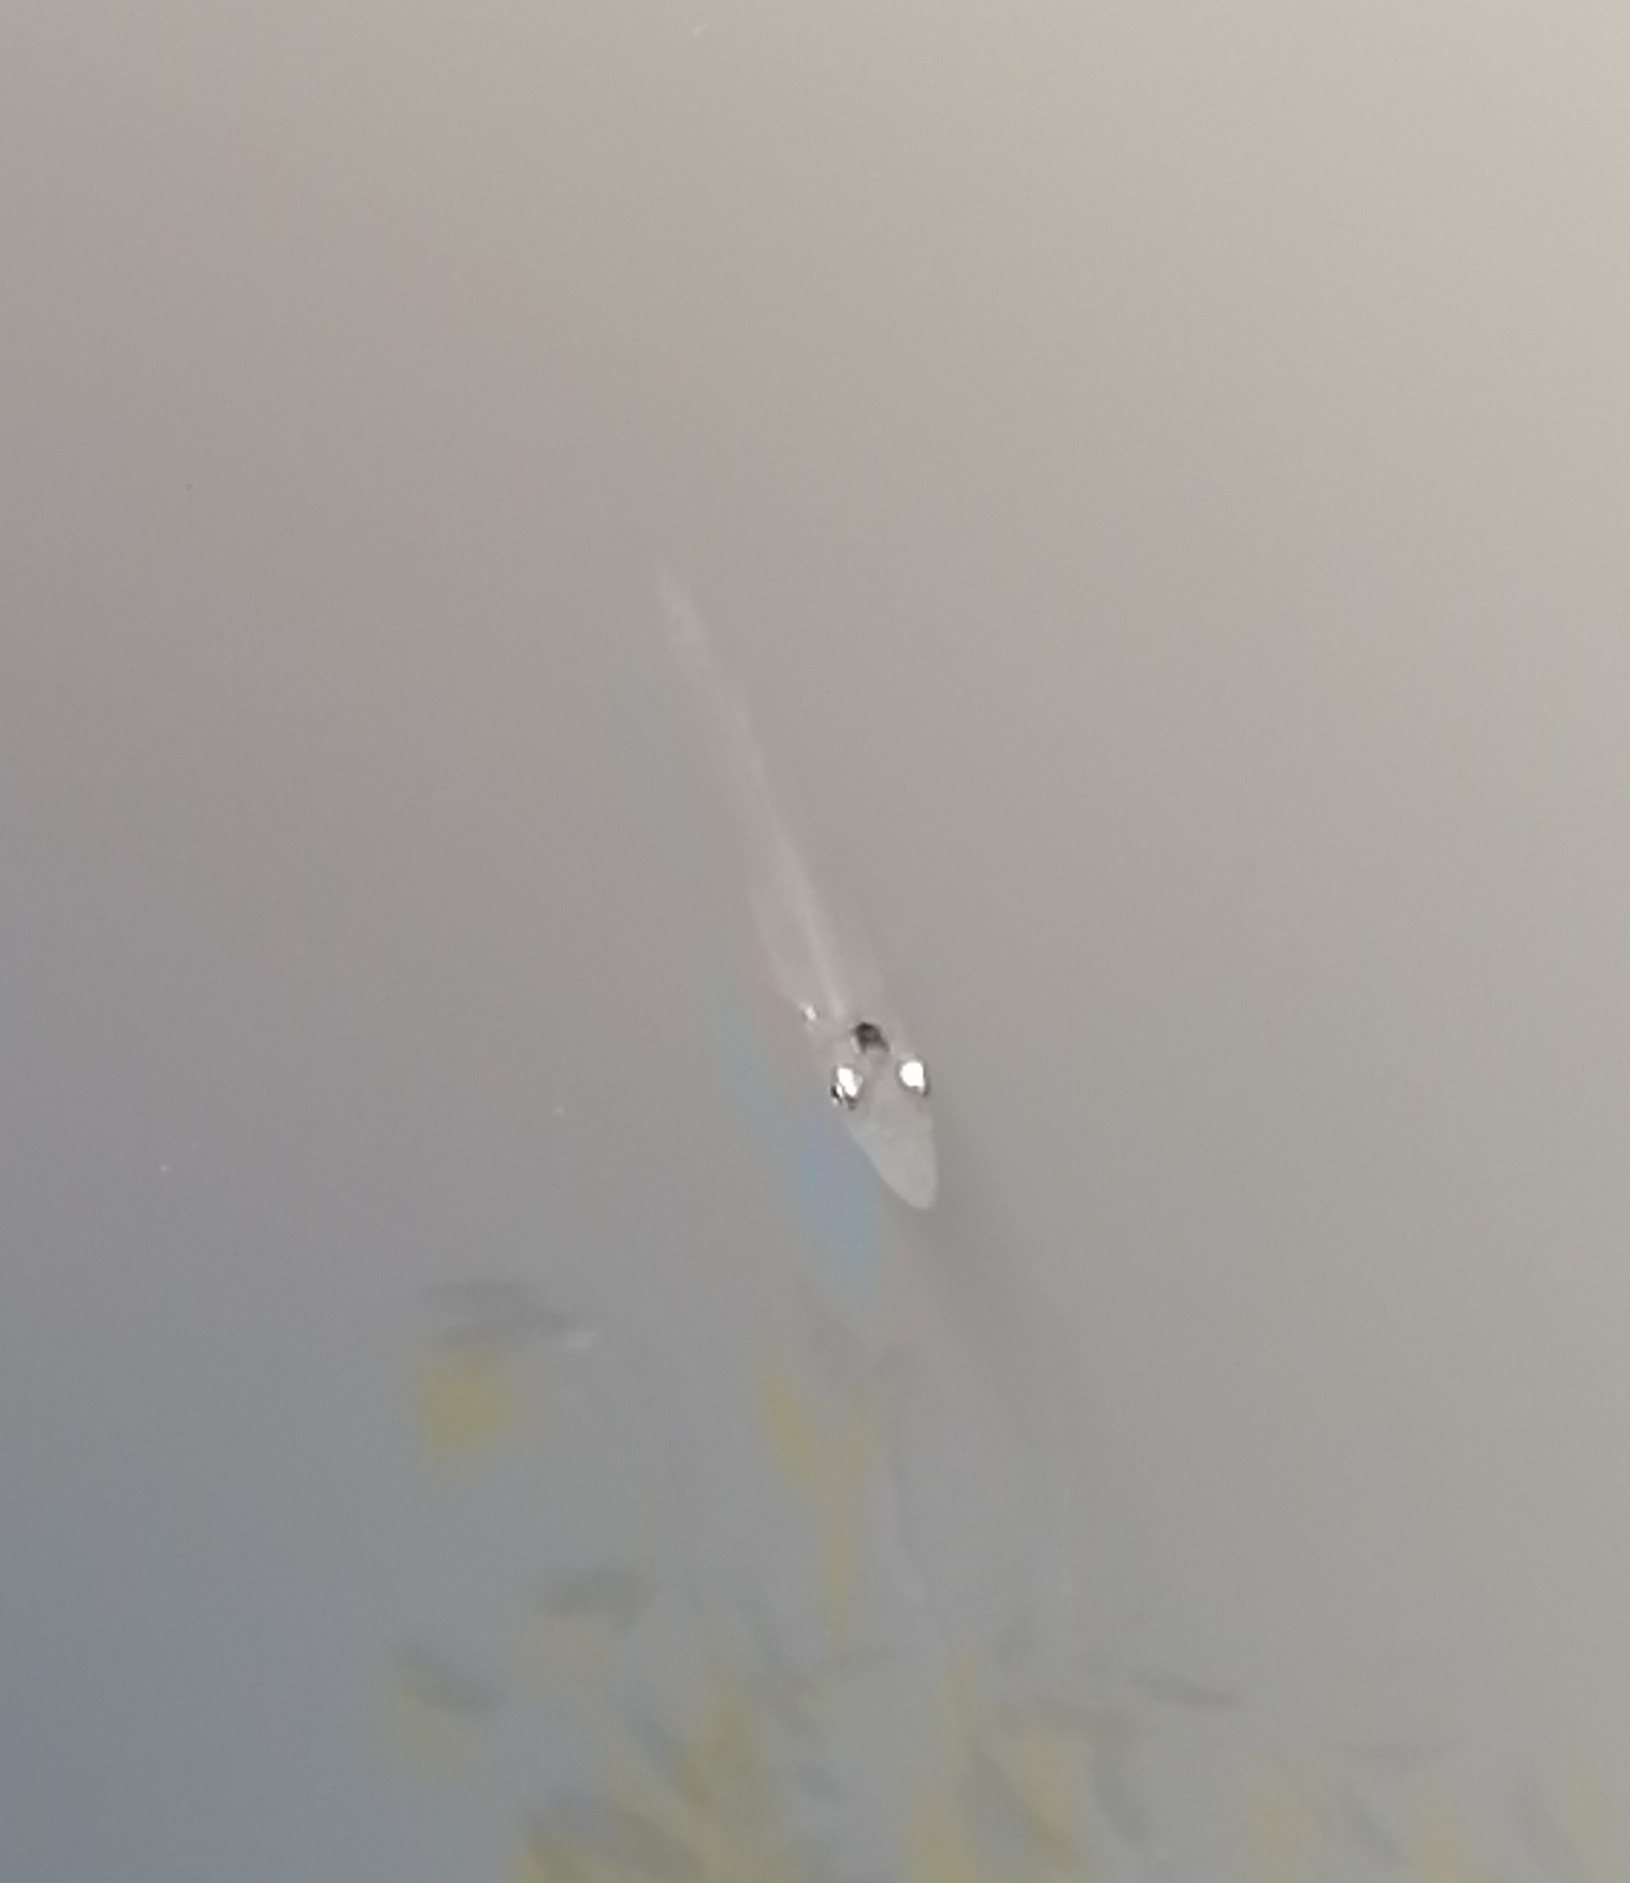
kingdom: Animalia
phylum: Chordata
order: Cyprinodontiformes
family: Poeciliidae
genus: Belonesox
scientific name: Belonesox belizanus
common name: Pike killifish
